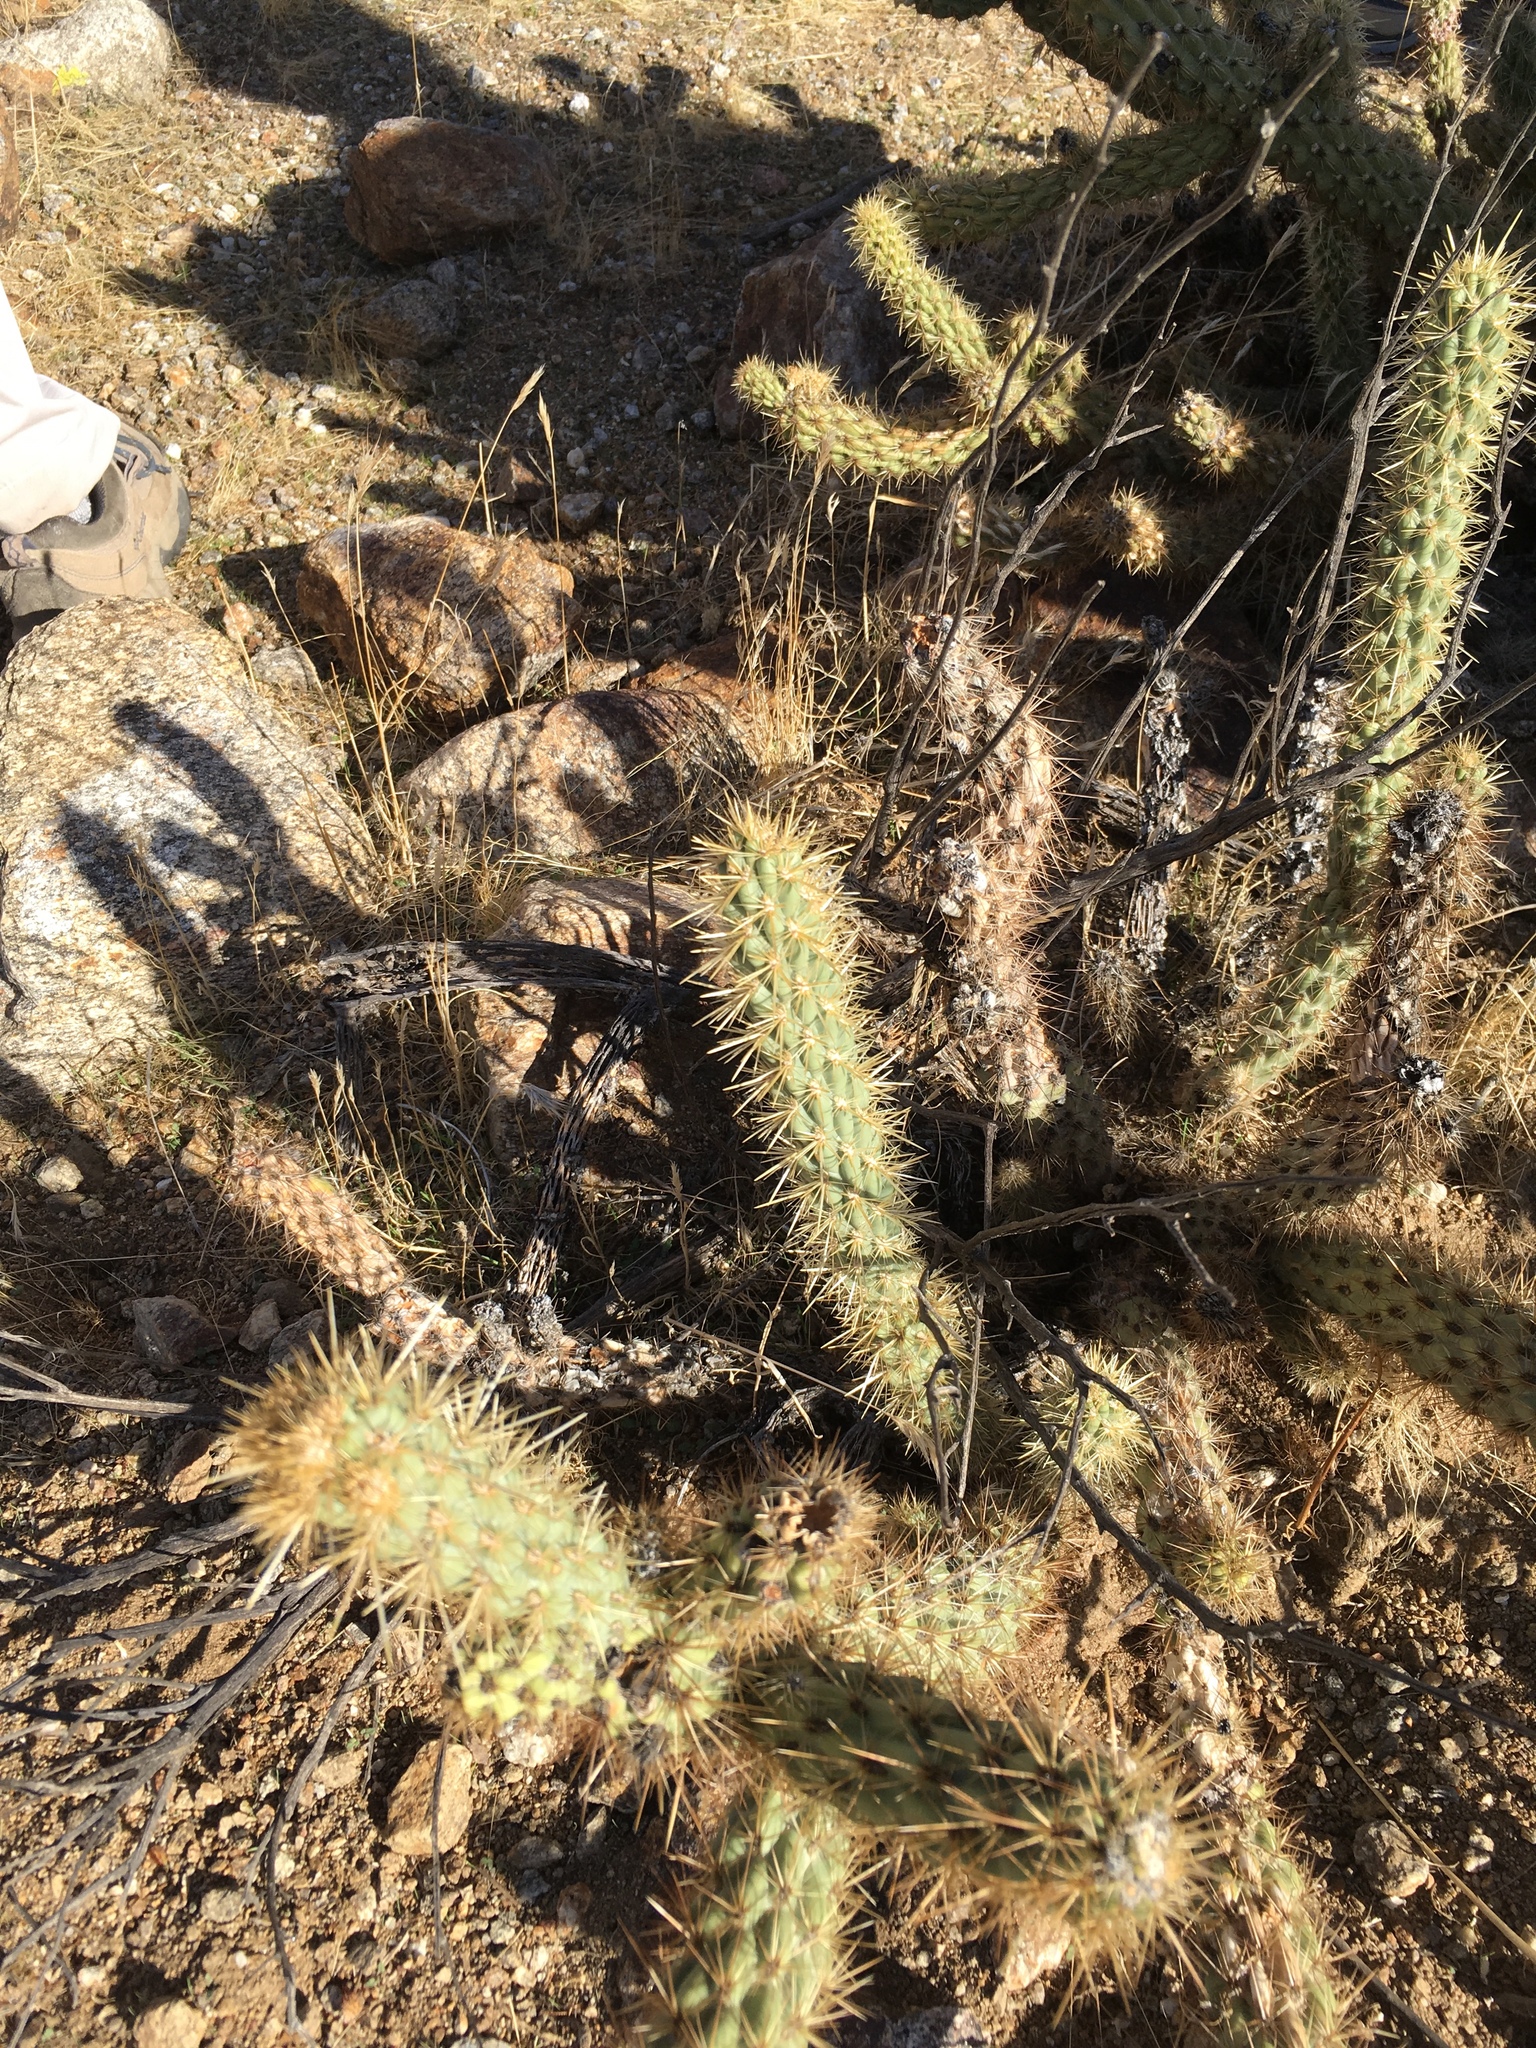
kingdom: Plantae
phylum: Tracheophyta
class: Magnoliopsida
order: Caryophyllales
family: Cactaceae
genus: Cylindropuntia
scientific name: Cylindropuntia ganderi
